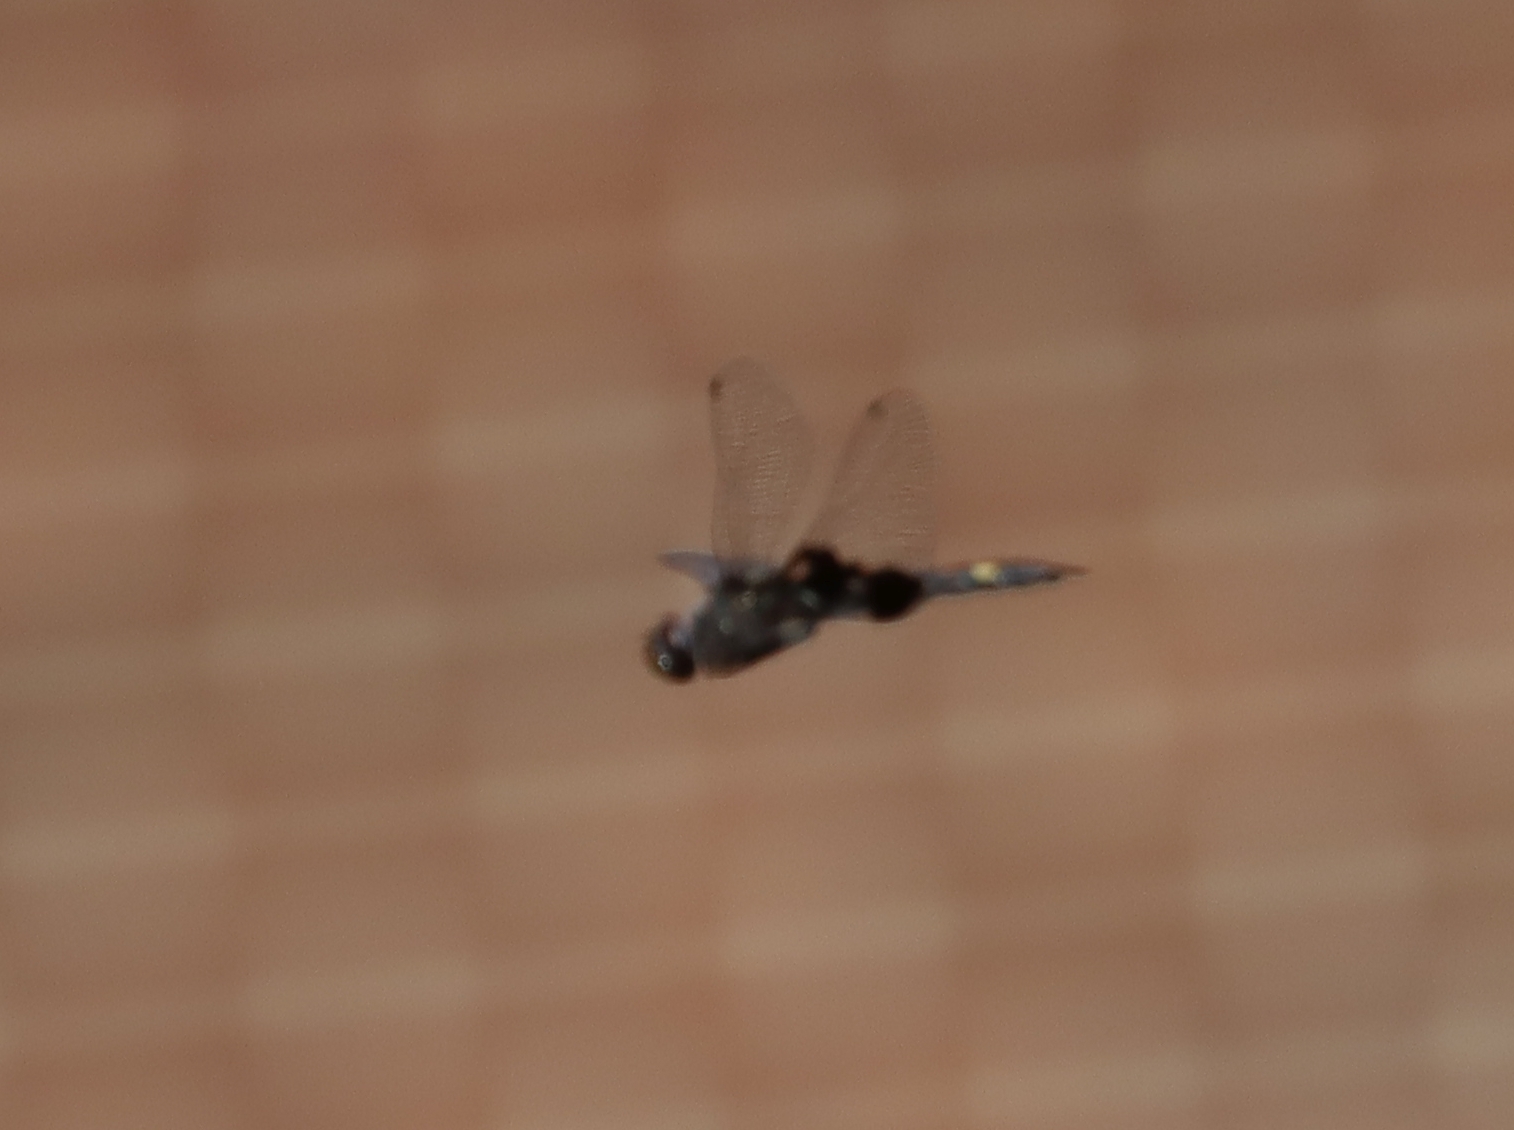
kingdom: Animalia
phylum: Arthropoda
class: Insecta
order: Odonata
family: Libellulidae
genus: Tramea
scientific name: Tramea lacerata
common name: Black saddlebags
